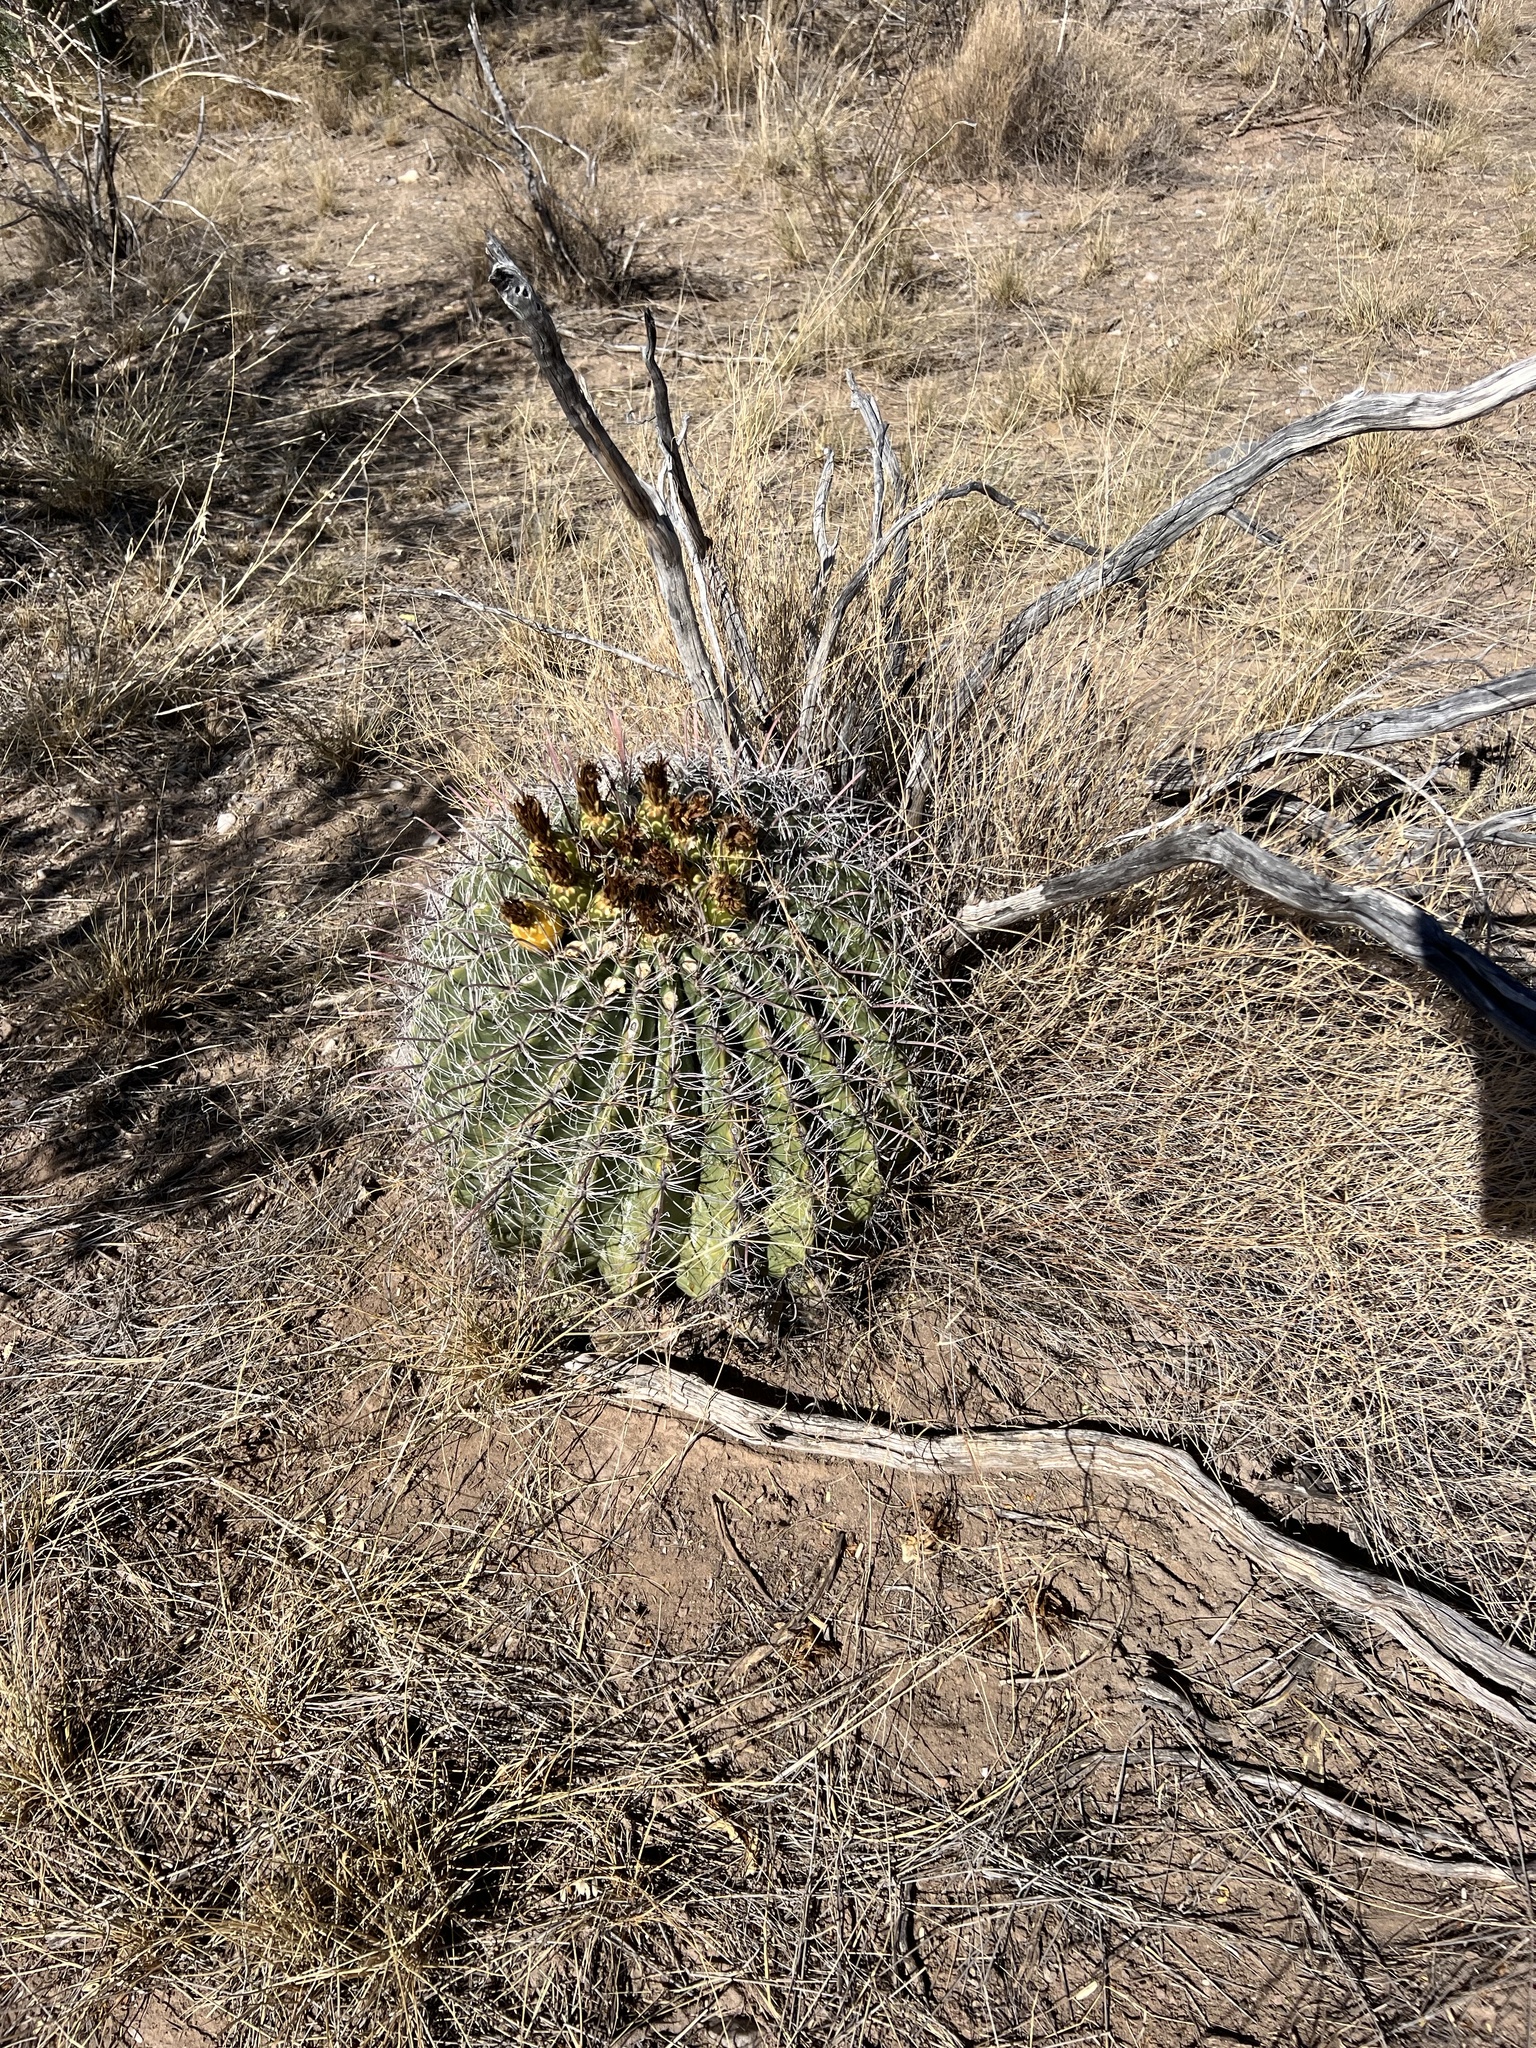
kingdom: Plantae
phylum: Tracheophyta
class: Magnoliopsida
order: Caryophyllales
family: Cactaceae
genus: Ferocactus
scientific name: Ferocactus wislizeni
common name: Candy barrel cactus
